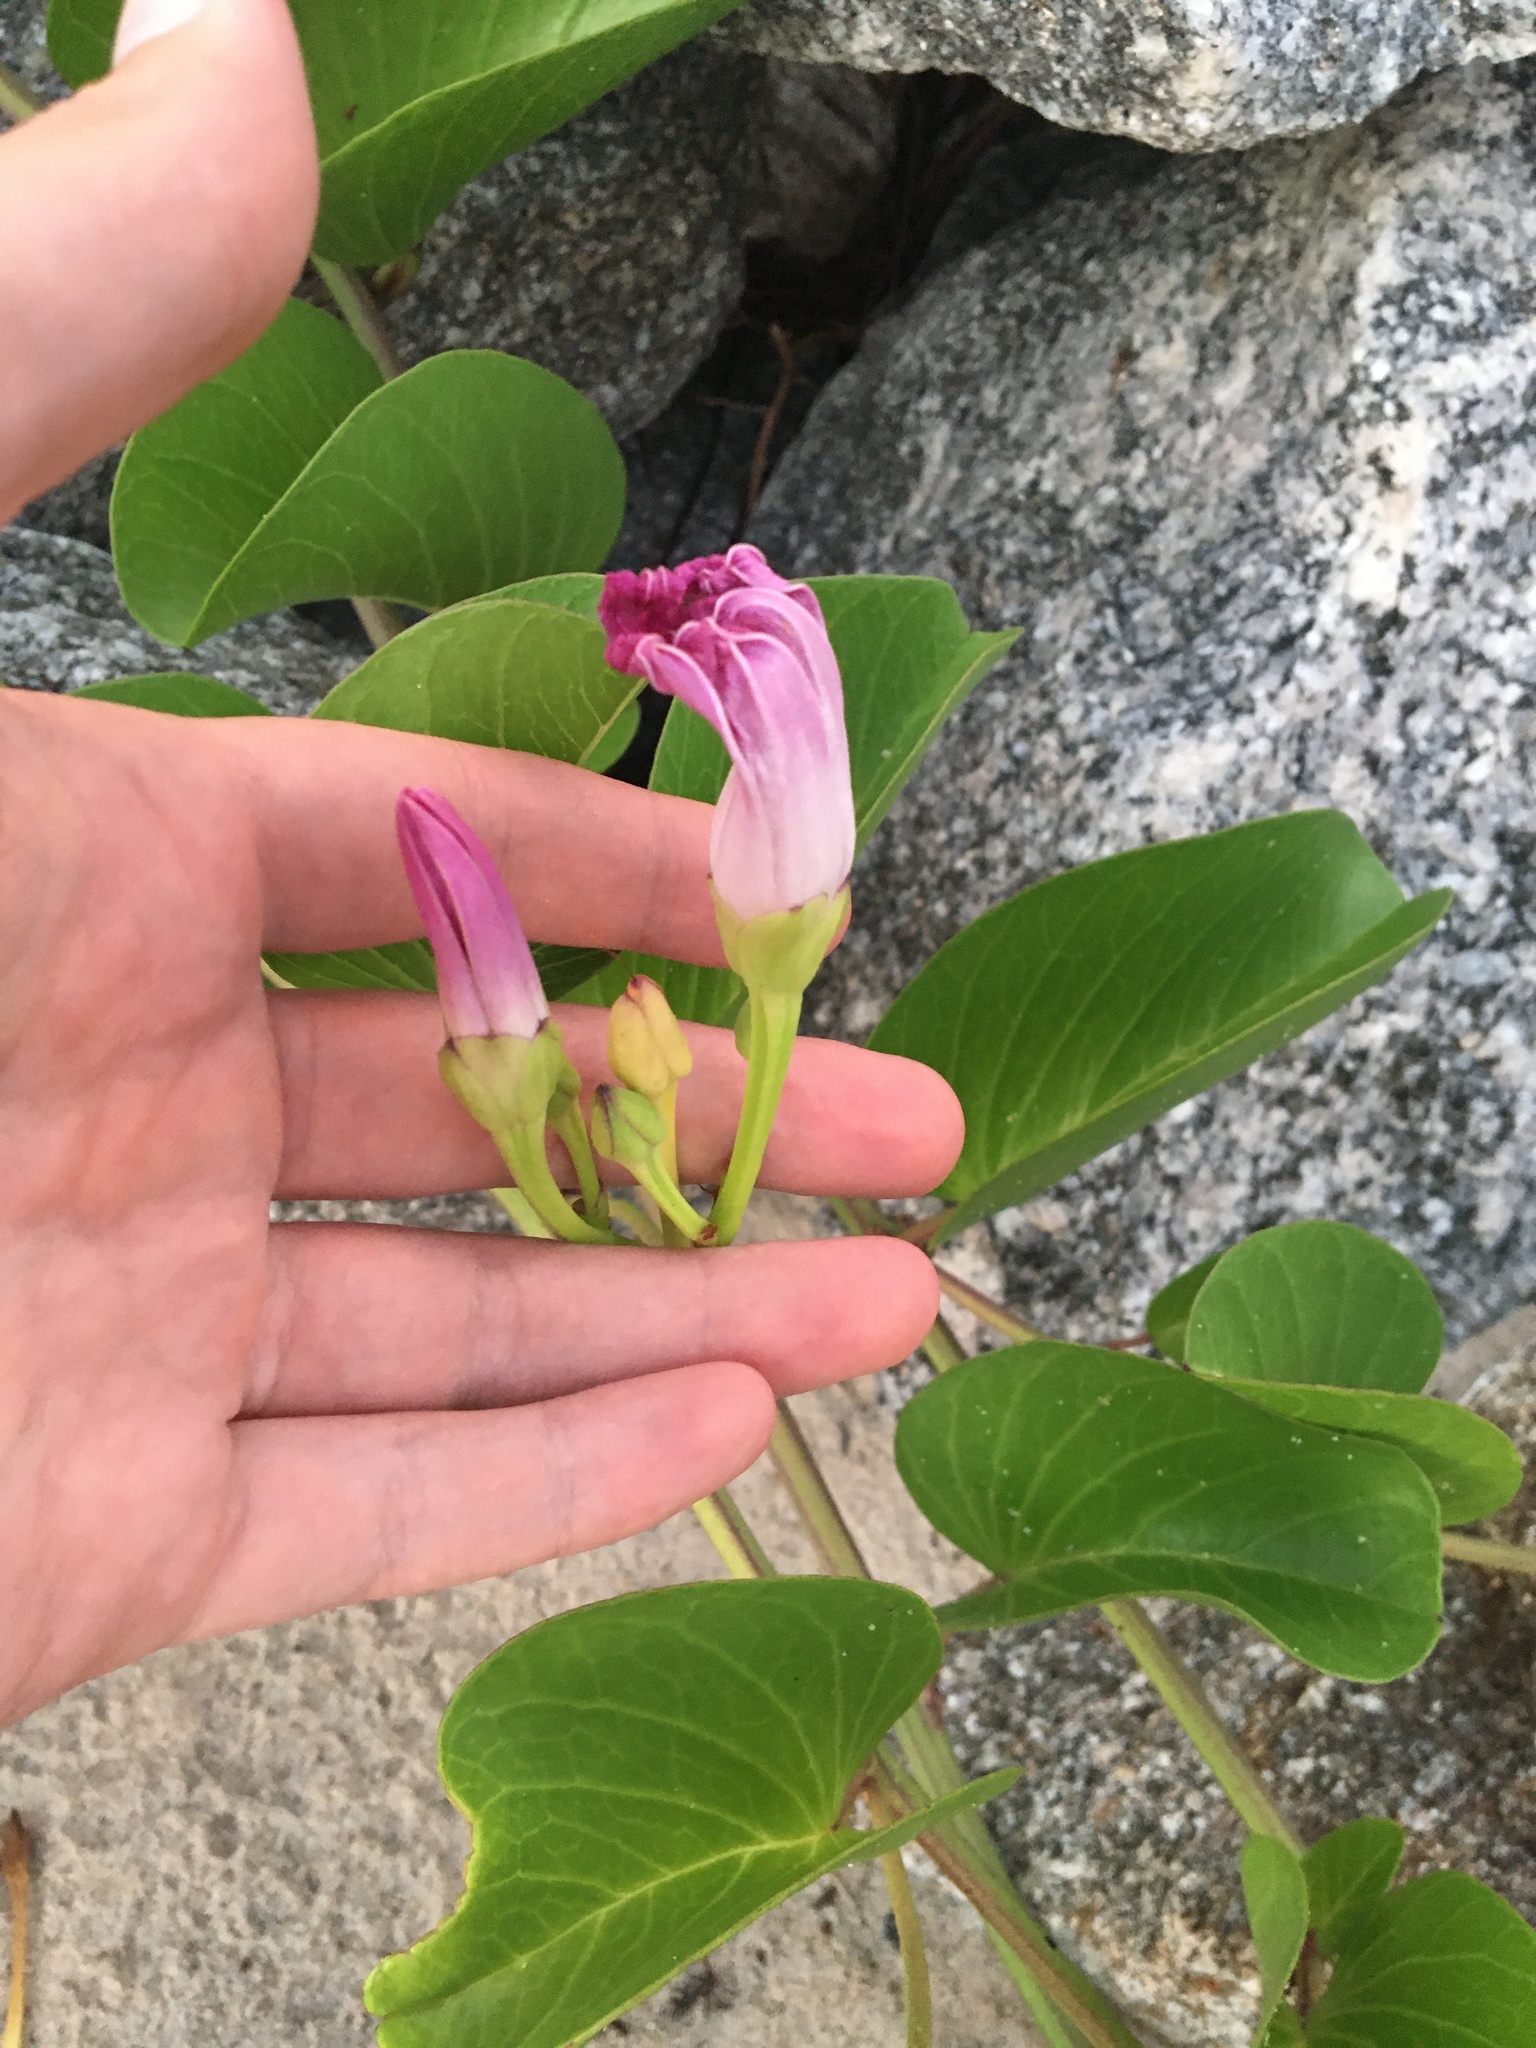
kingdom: Plantae
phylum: Tracheophyta
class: Magnoliopsida
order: Solanales
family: Convolvulaceae
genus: Ipomoea
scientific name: Ipomoea pes-caprae
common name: Beach morning glory
